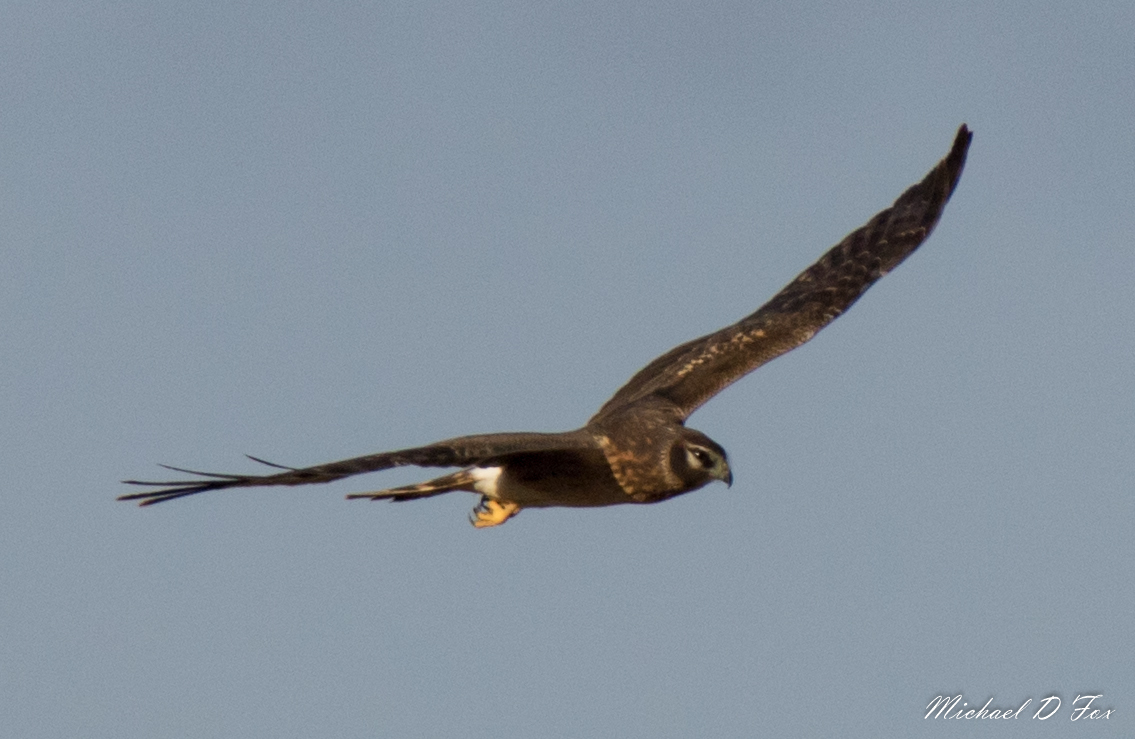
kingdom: Animalia
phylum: Chordata
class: Aves
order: Accipitriformes
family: Accipitridae
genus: Circus
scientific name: Circus cyaneus
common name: Hen harrier
